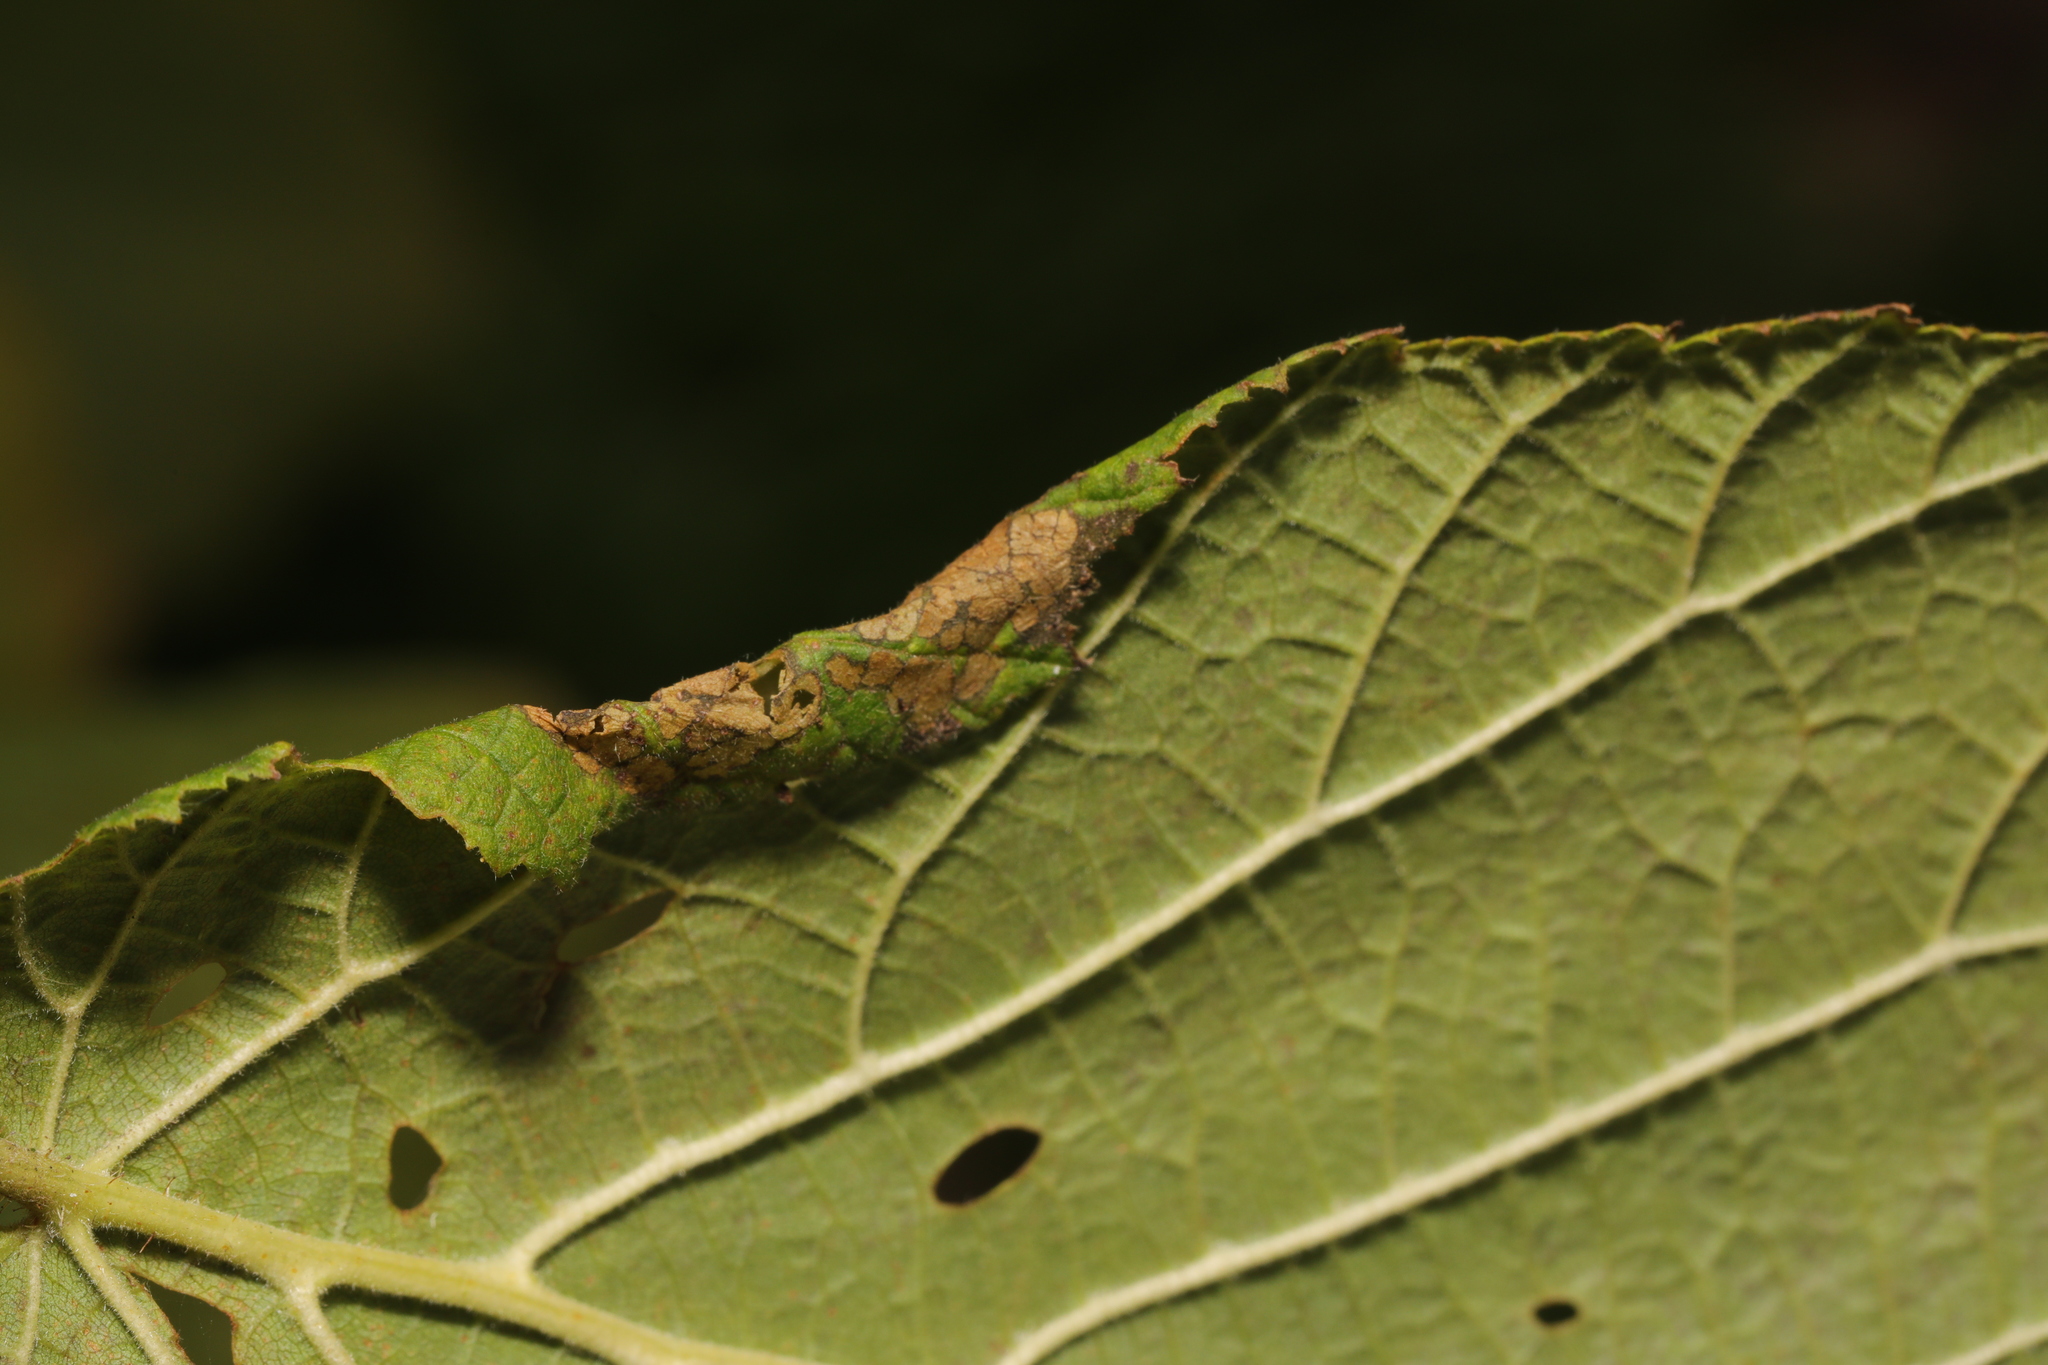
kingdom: Animalia
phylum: Arthropoda
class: Insecta
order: Lepidoptera
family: Gracillariidae
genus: Parornix
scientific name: Parornix devoniella
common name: Hazel slender
